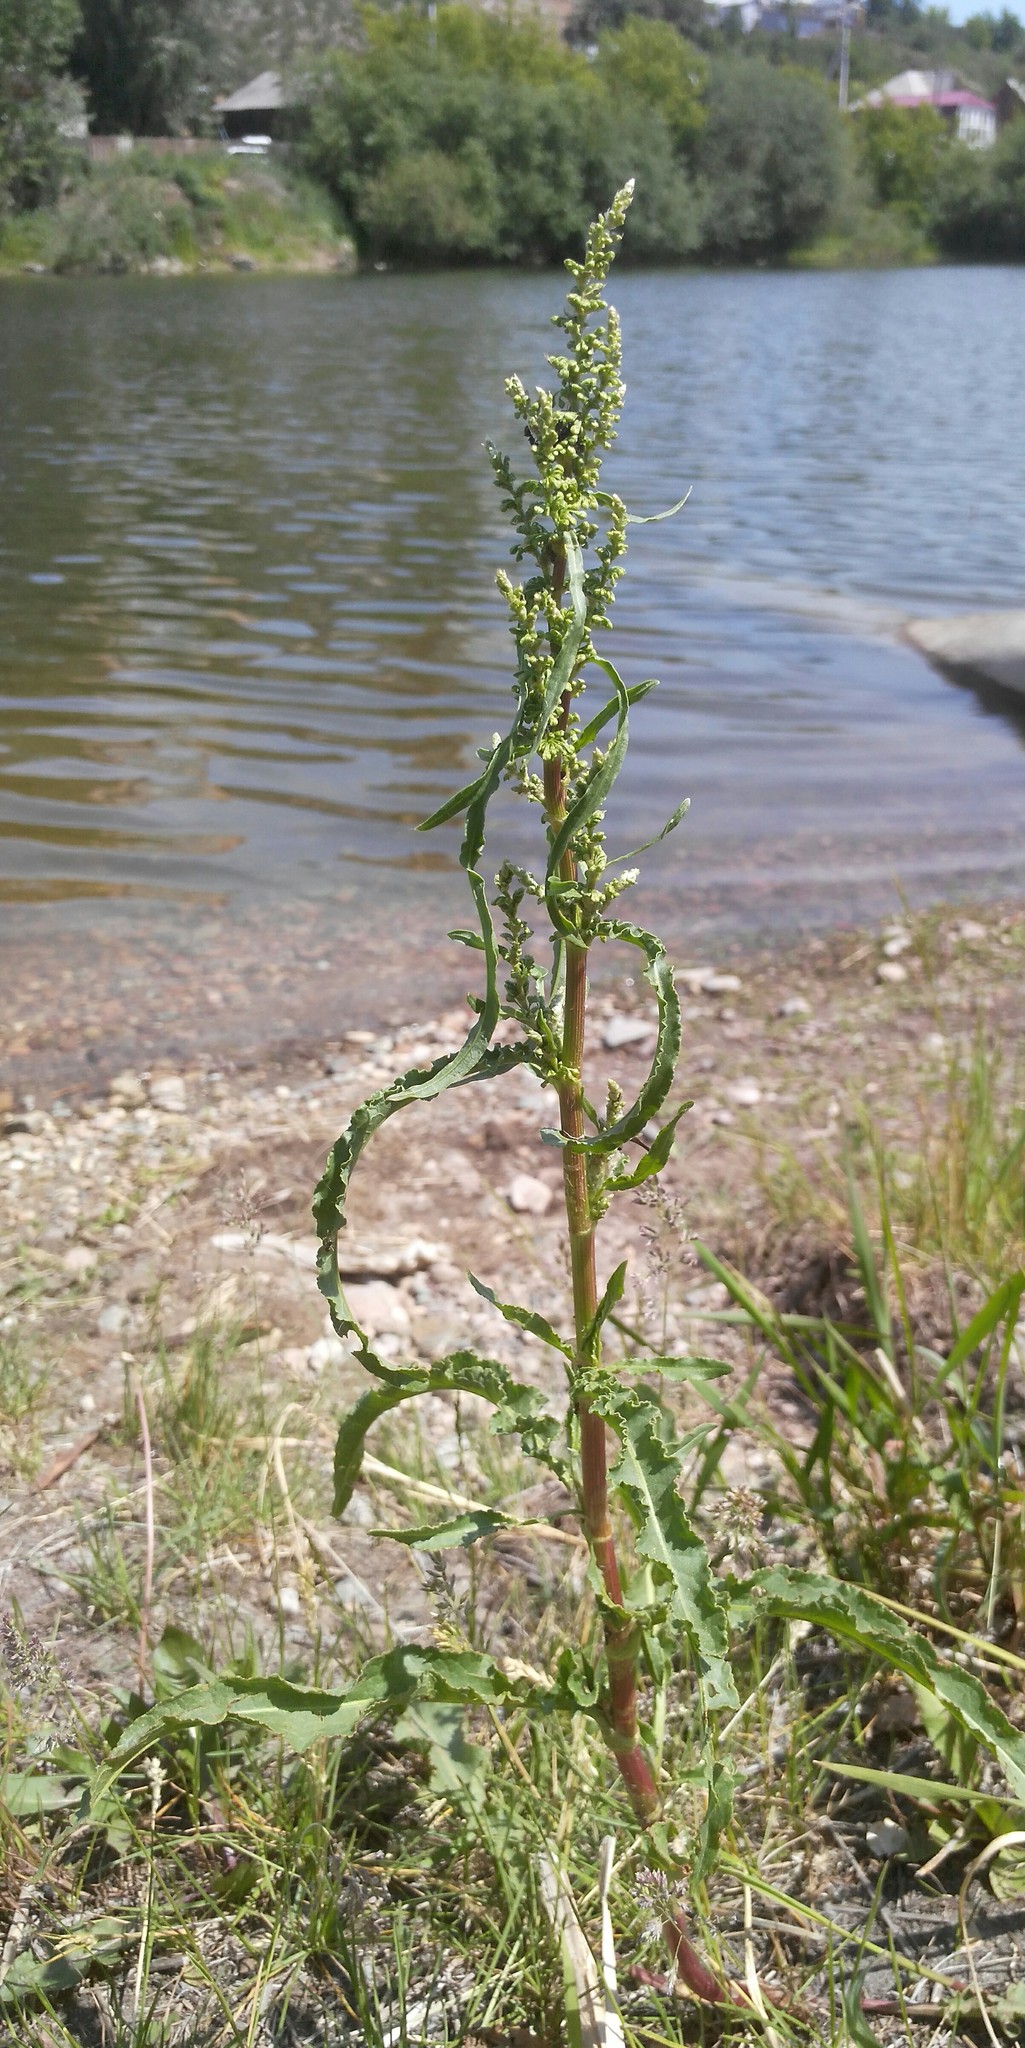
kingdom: Plantae
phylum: Tracheophyta
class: Magnoliopsida
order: Caryophyllales
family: Polygonaceae
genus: Rumex
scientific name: Rumex pseudonatronatus
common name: Field dock
